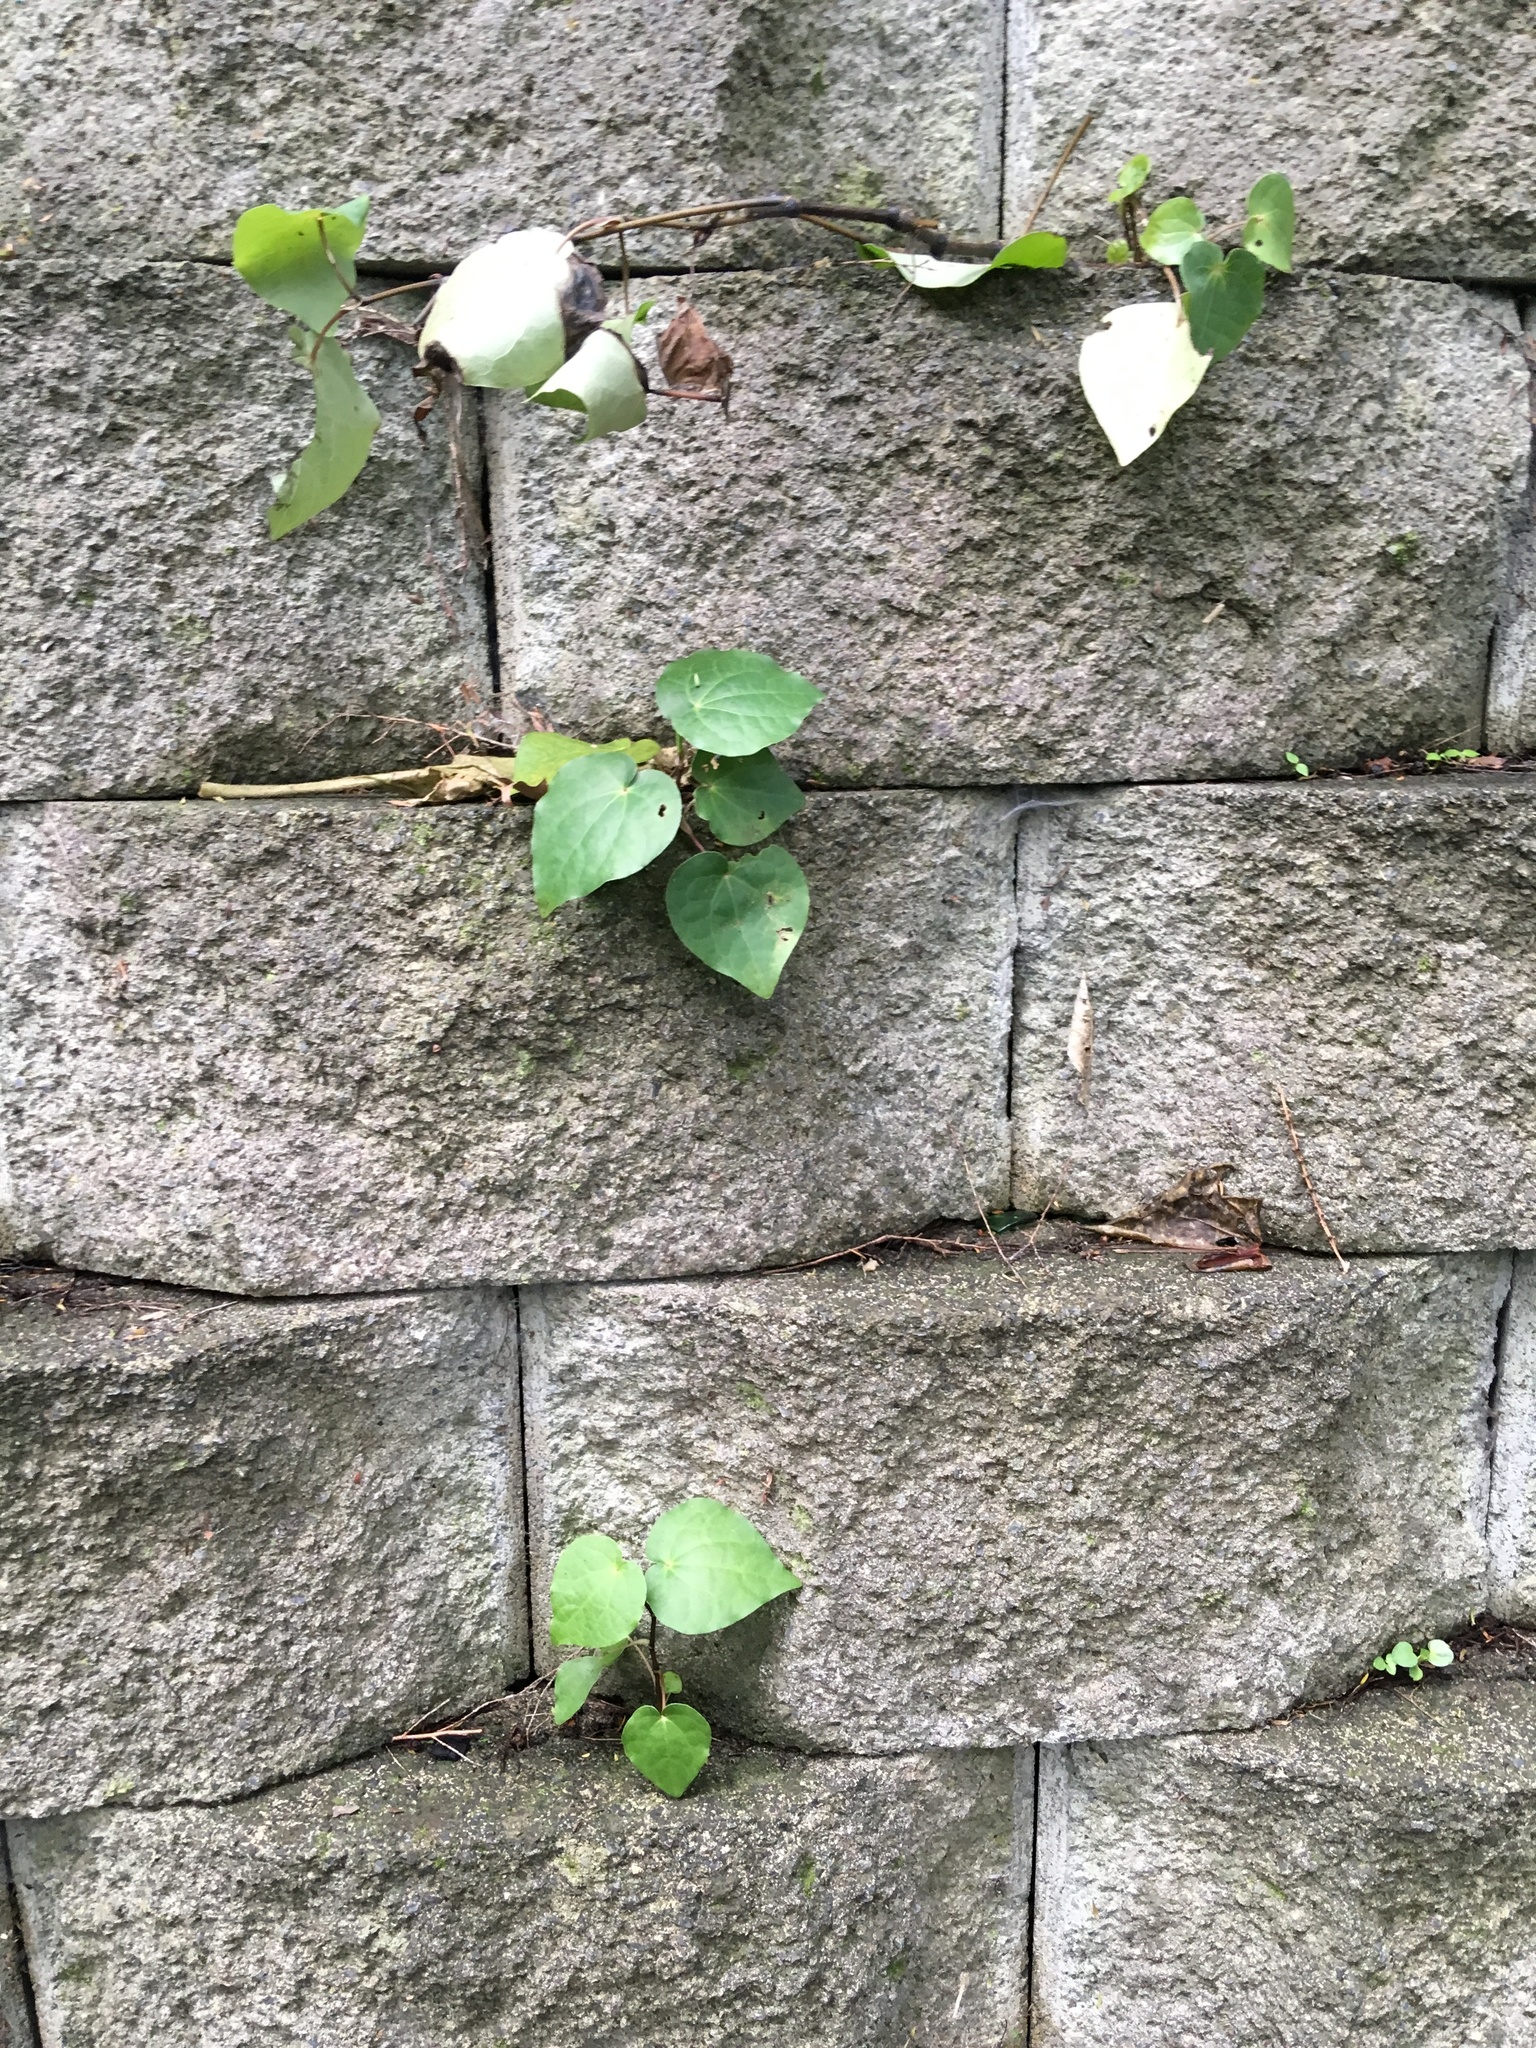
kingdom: Plantae
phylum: Tracheophyta
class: Magnoliopsida
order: Piperales
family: Piperaceae
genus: Macropiper
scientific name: Macropiper excelsum
